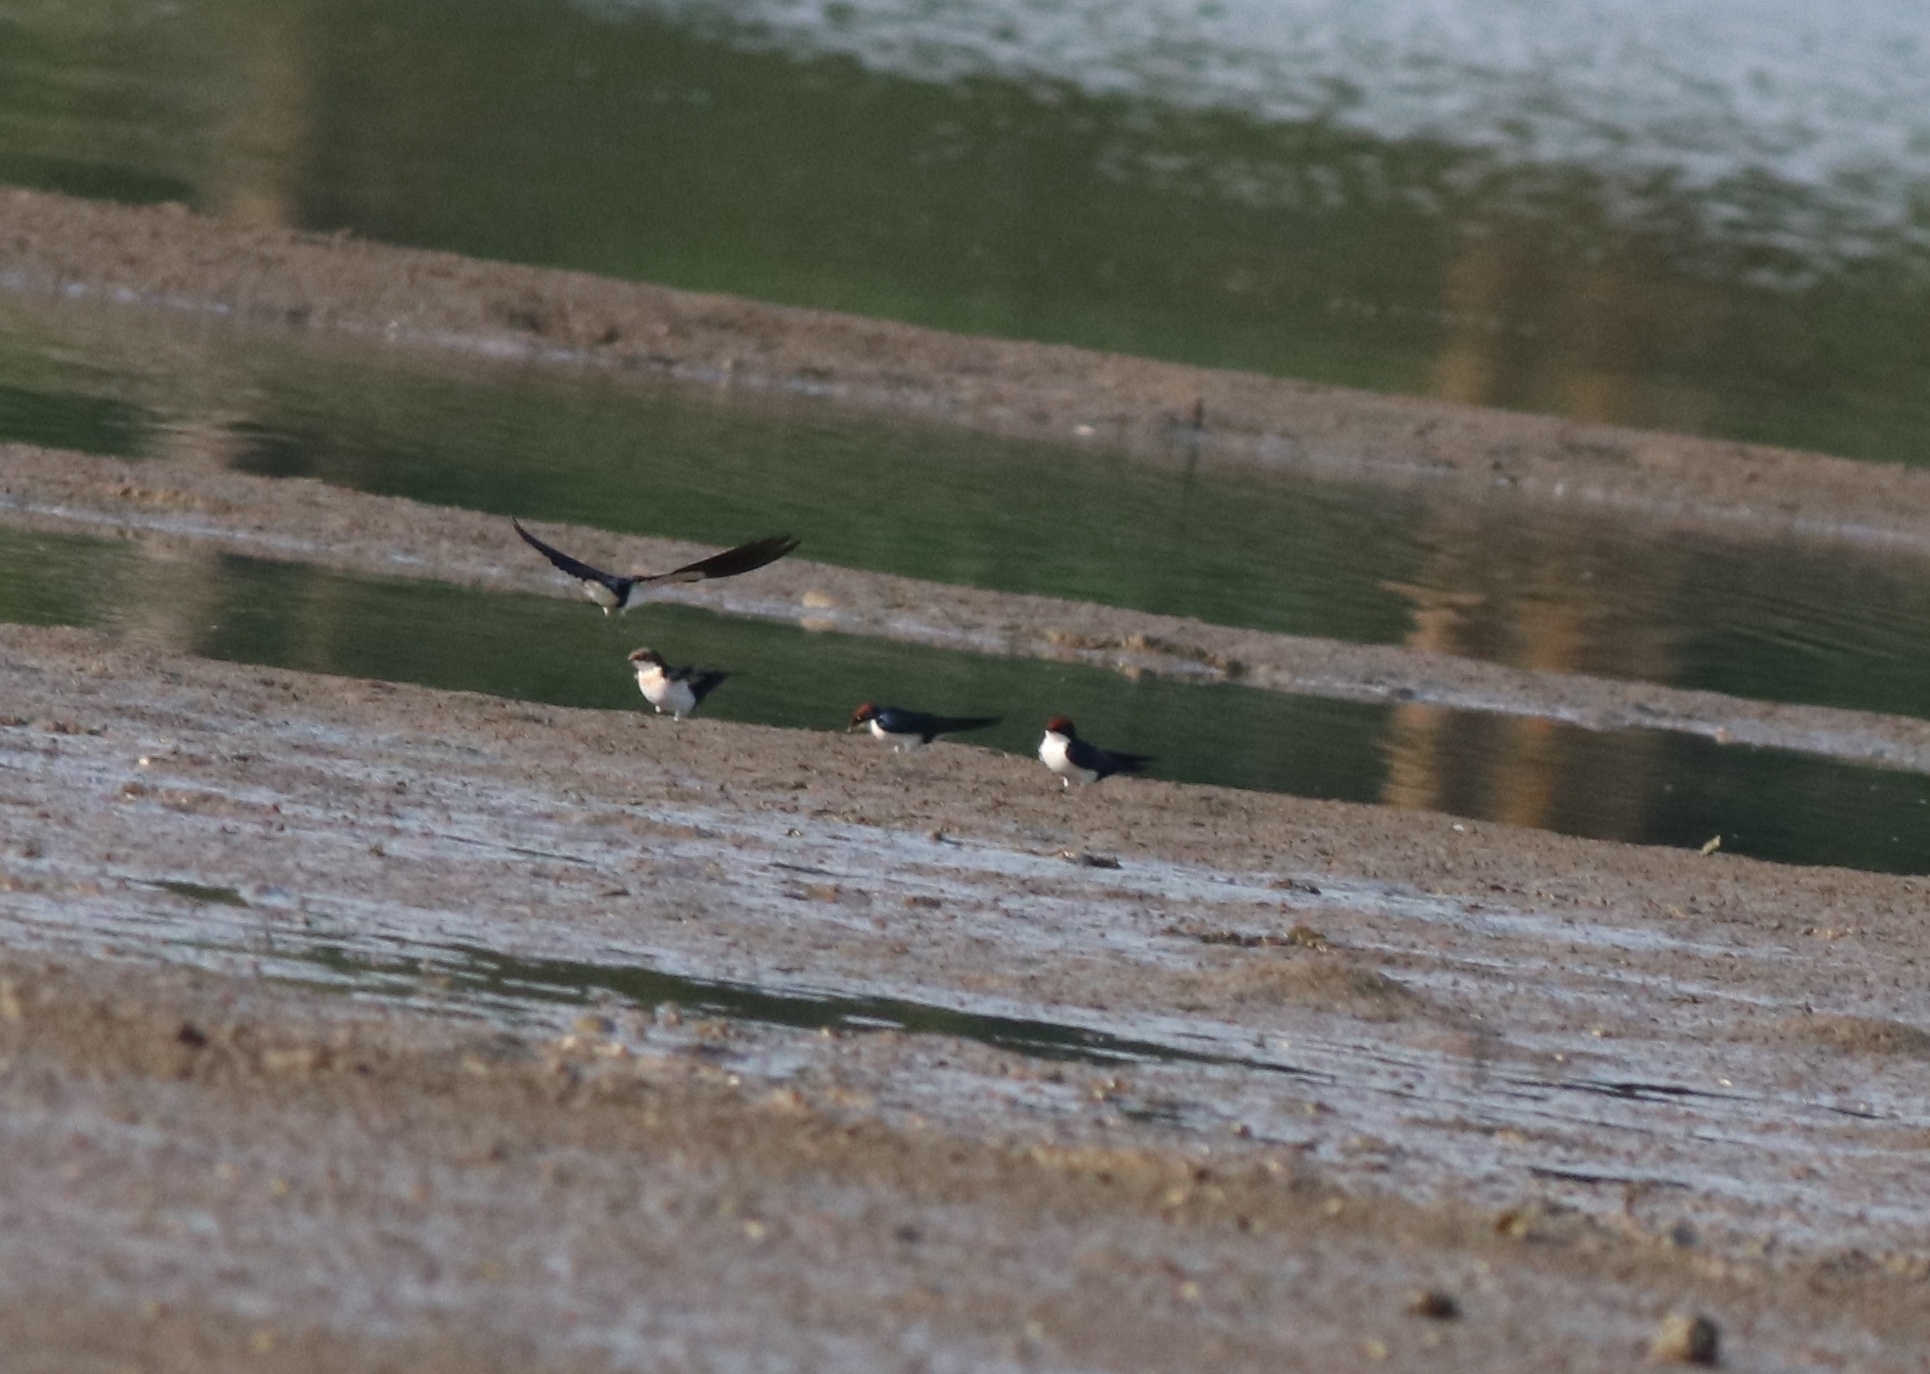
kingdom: Animalia
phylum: Chordata
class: Aves
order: Passeriformes
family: Hirundinidae
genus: Hirundo
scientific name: Hirundo smithii
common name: Wire-tailed swallow
